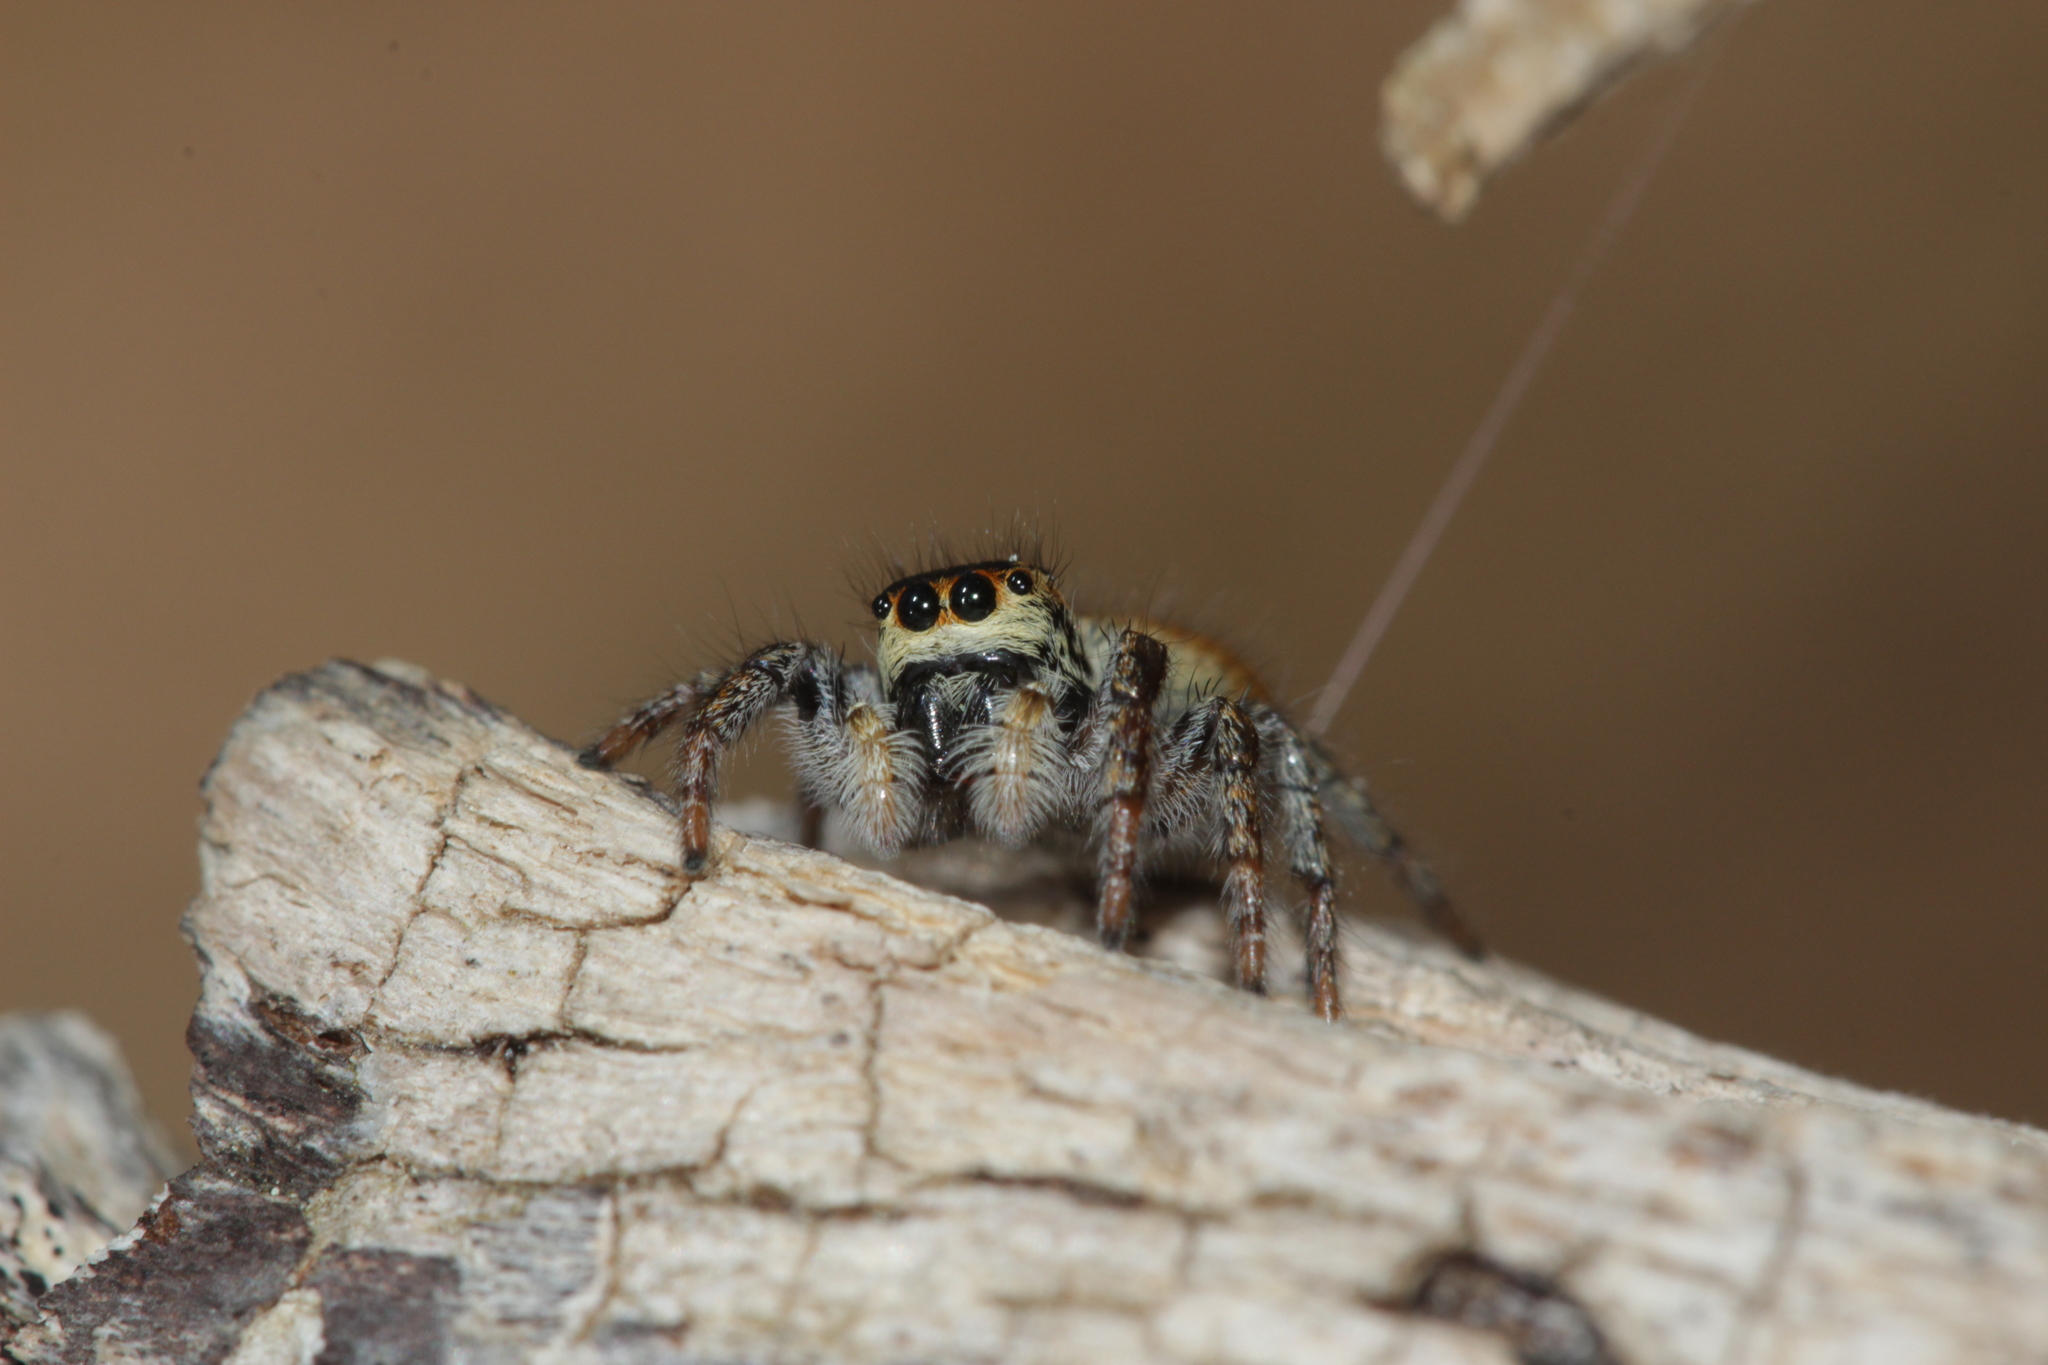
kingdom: Animalia
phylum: Arthropoda
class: Arachnida
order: Araneae
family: Salticidae
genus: Carrhotus
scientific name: Carrhotus xanthogramma
